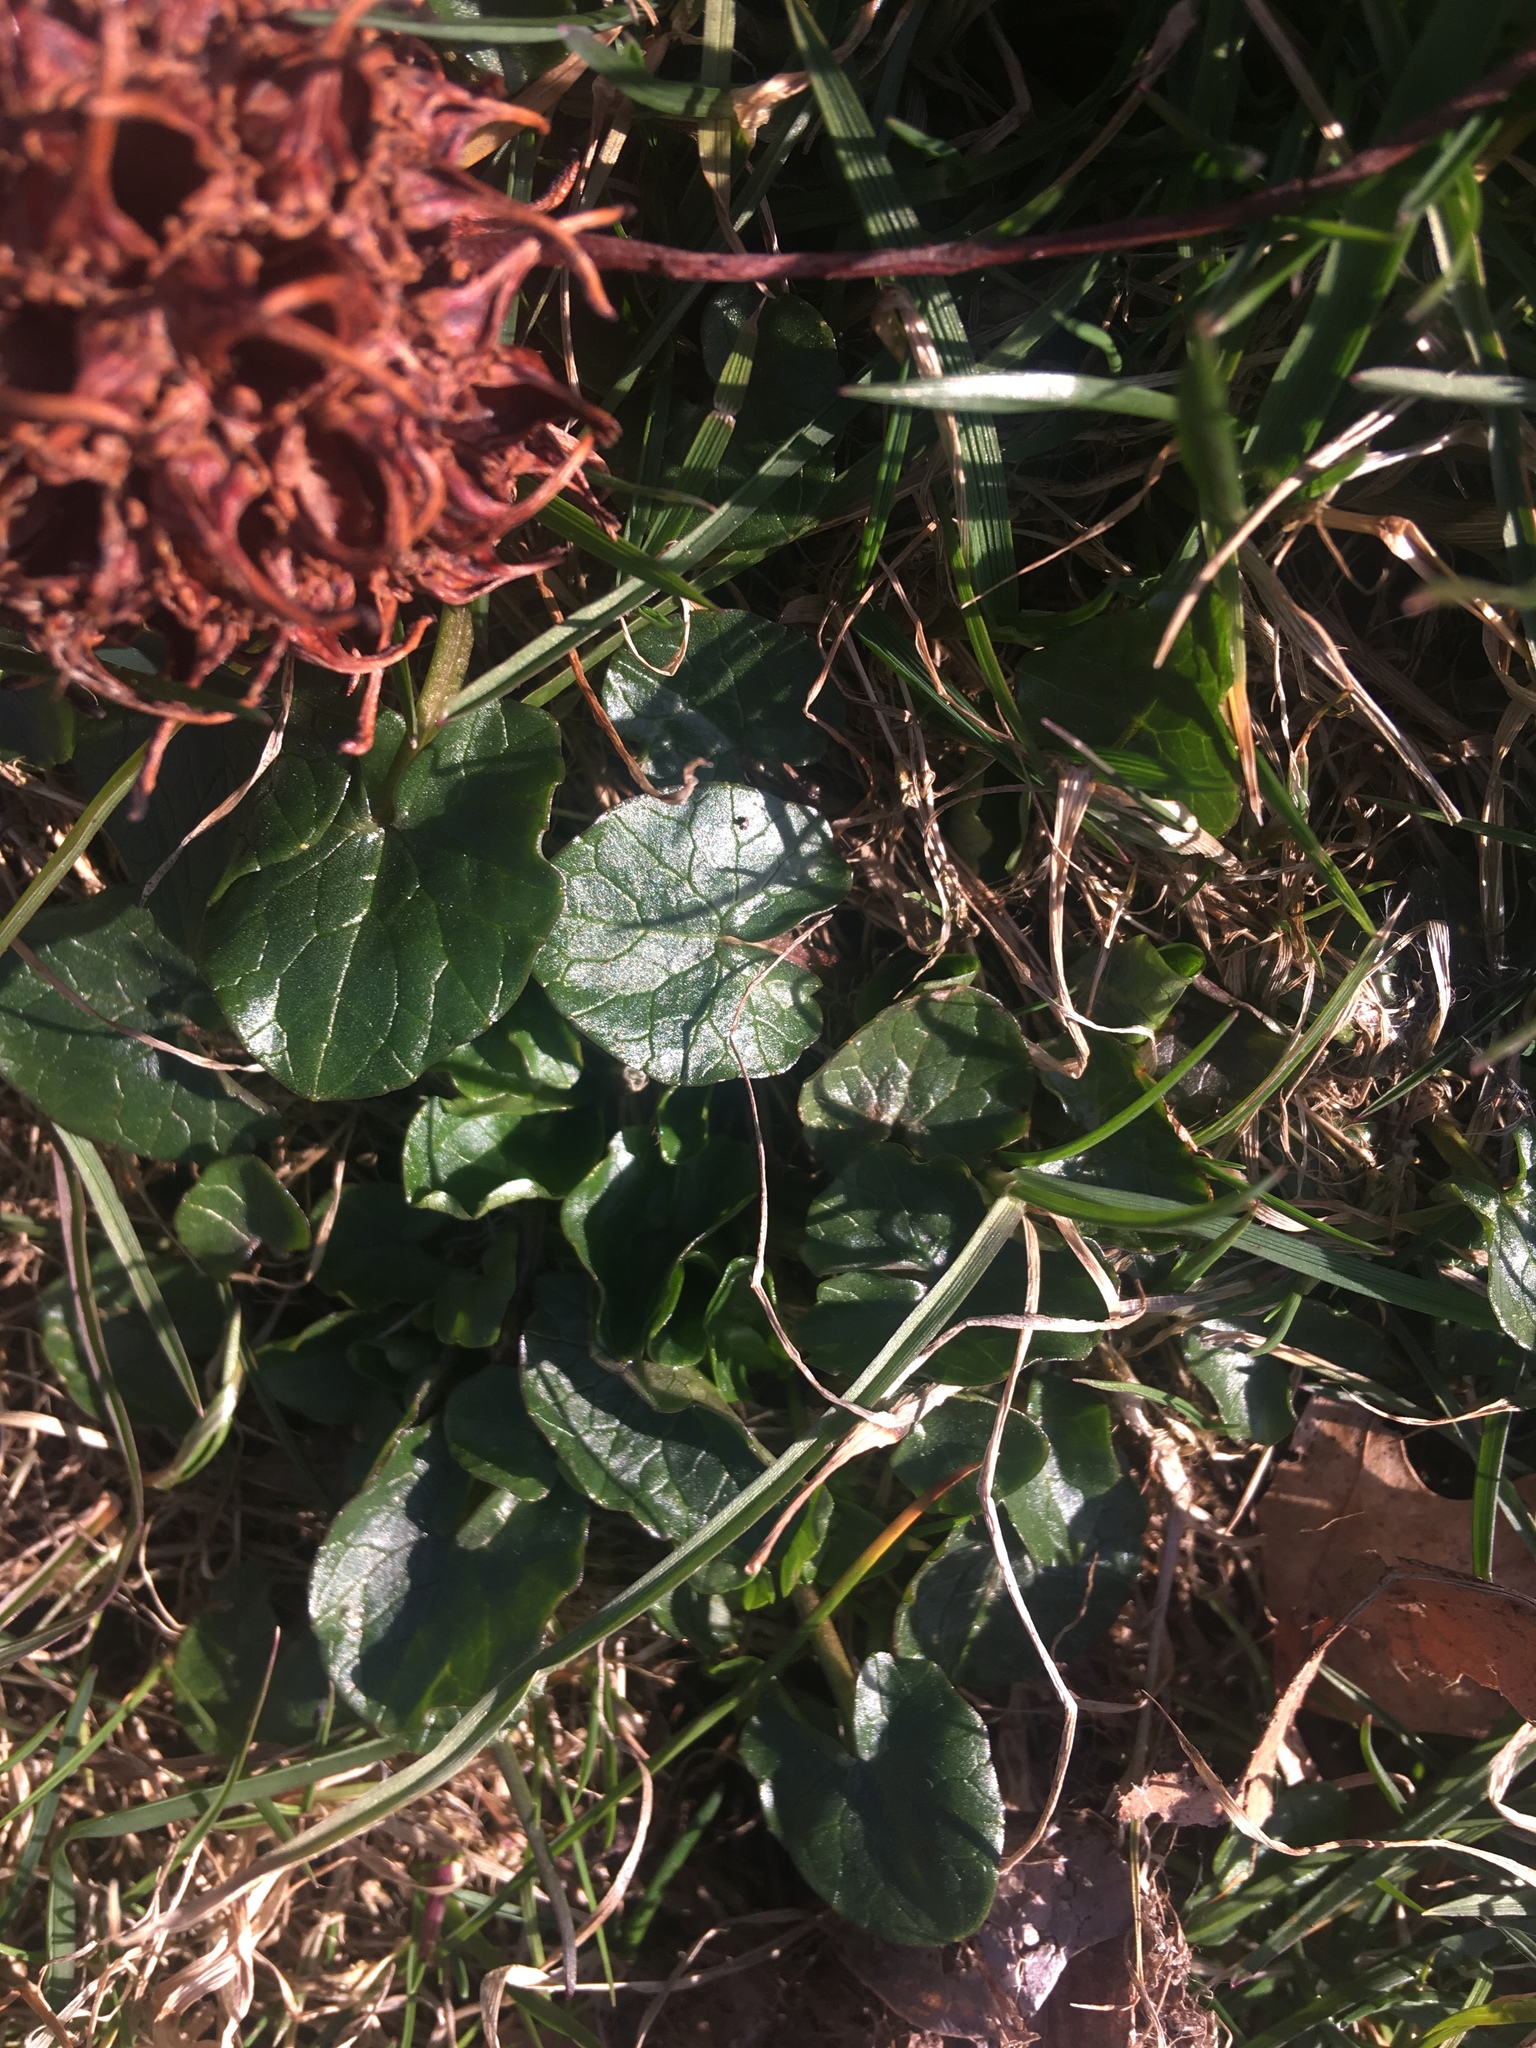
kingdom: Plantae
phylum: Tracheophyta
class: Magnoliopsida
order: Ranunculales
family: Ranunculaceae
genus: Ficaria
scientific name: Ficaria verna
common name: Lesser celandine
